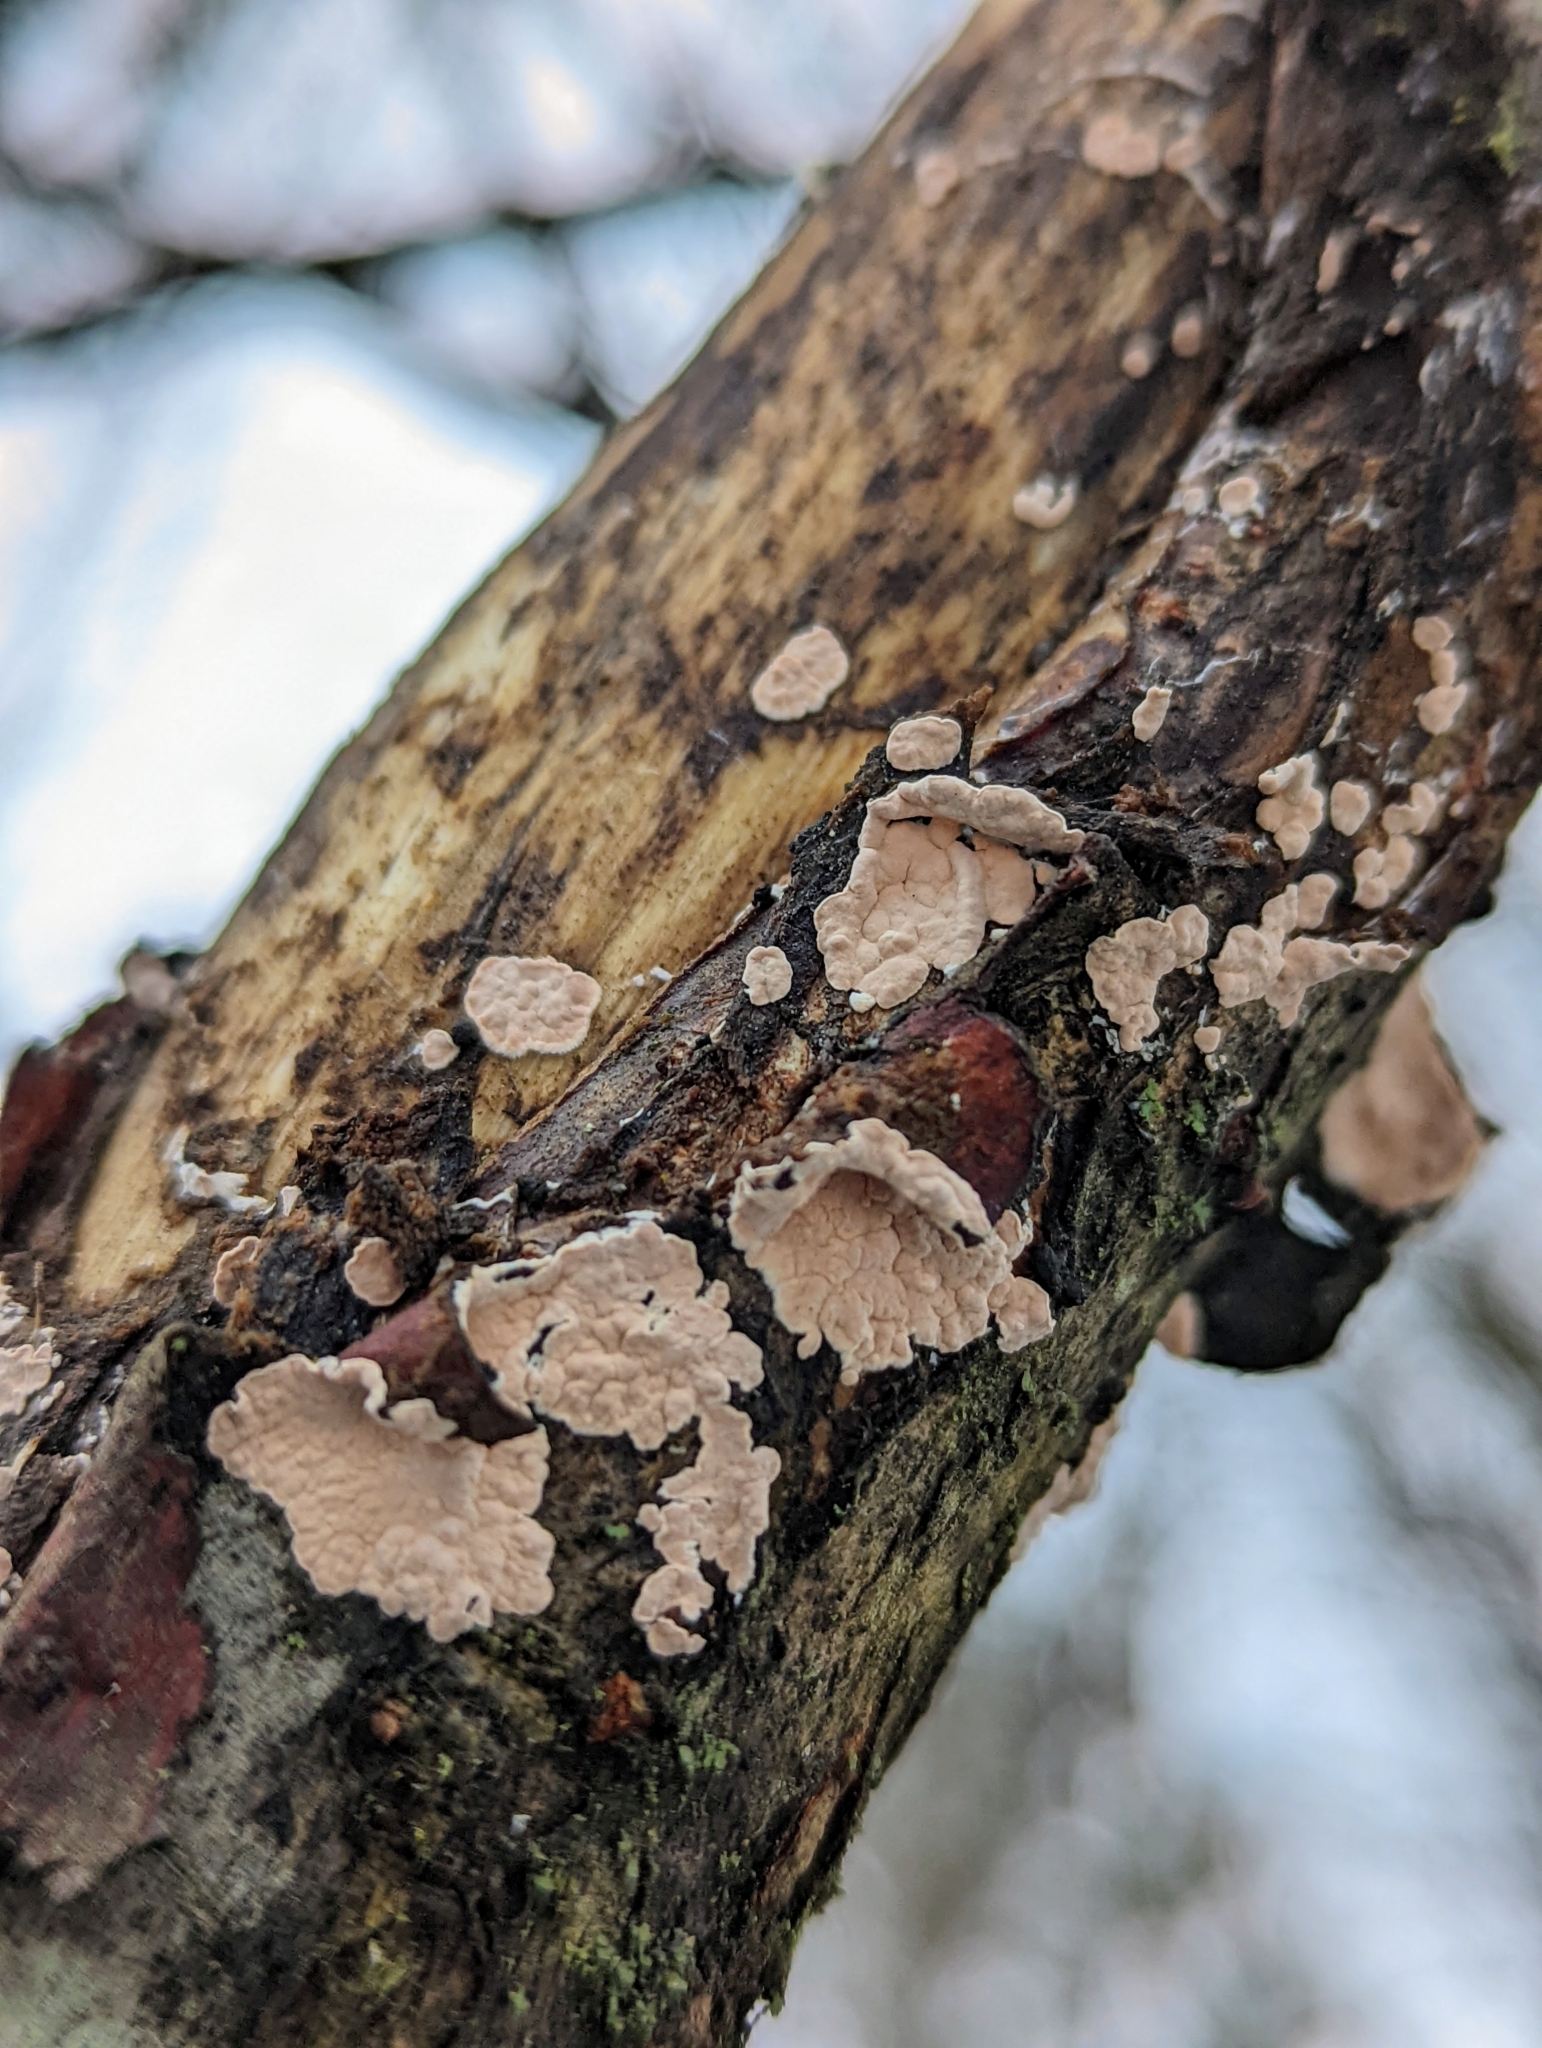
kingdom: Fungi
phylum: Basidiomycota
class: Agaricomycetes
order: Corticiales
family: Corticiaceae
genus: Corticium
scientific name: Corticium roseum
